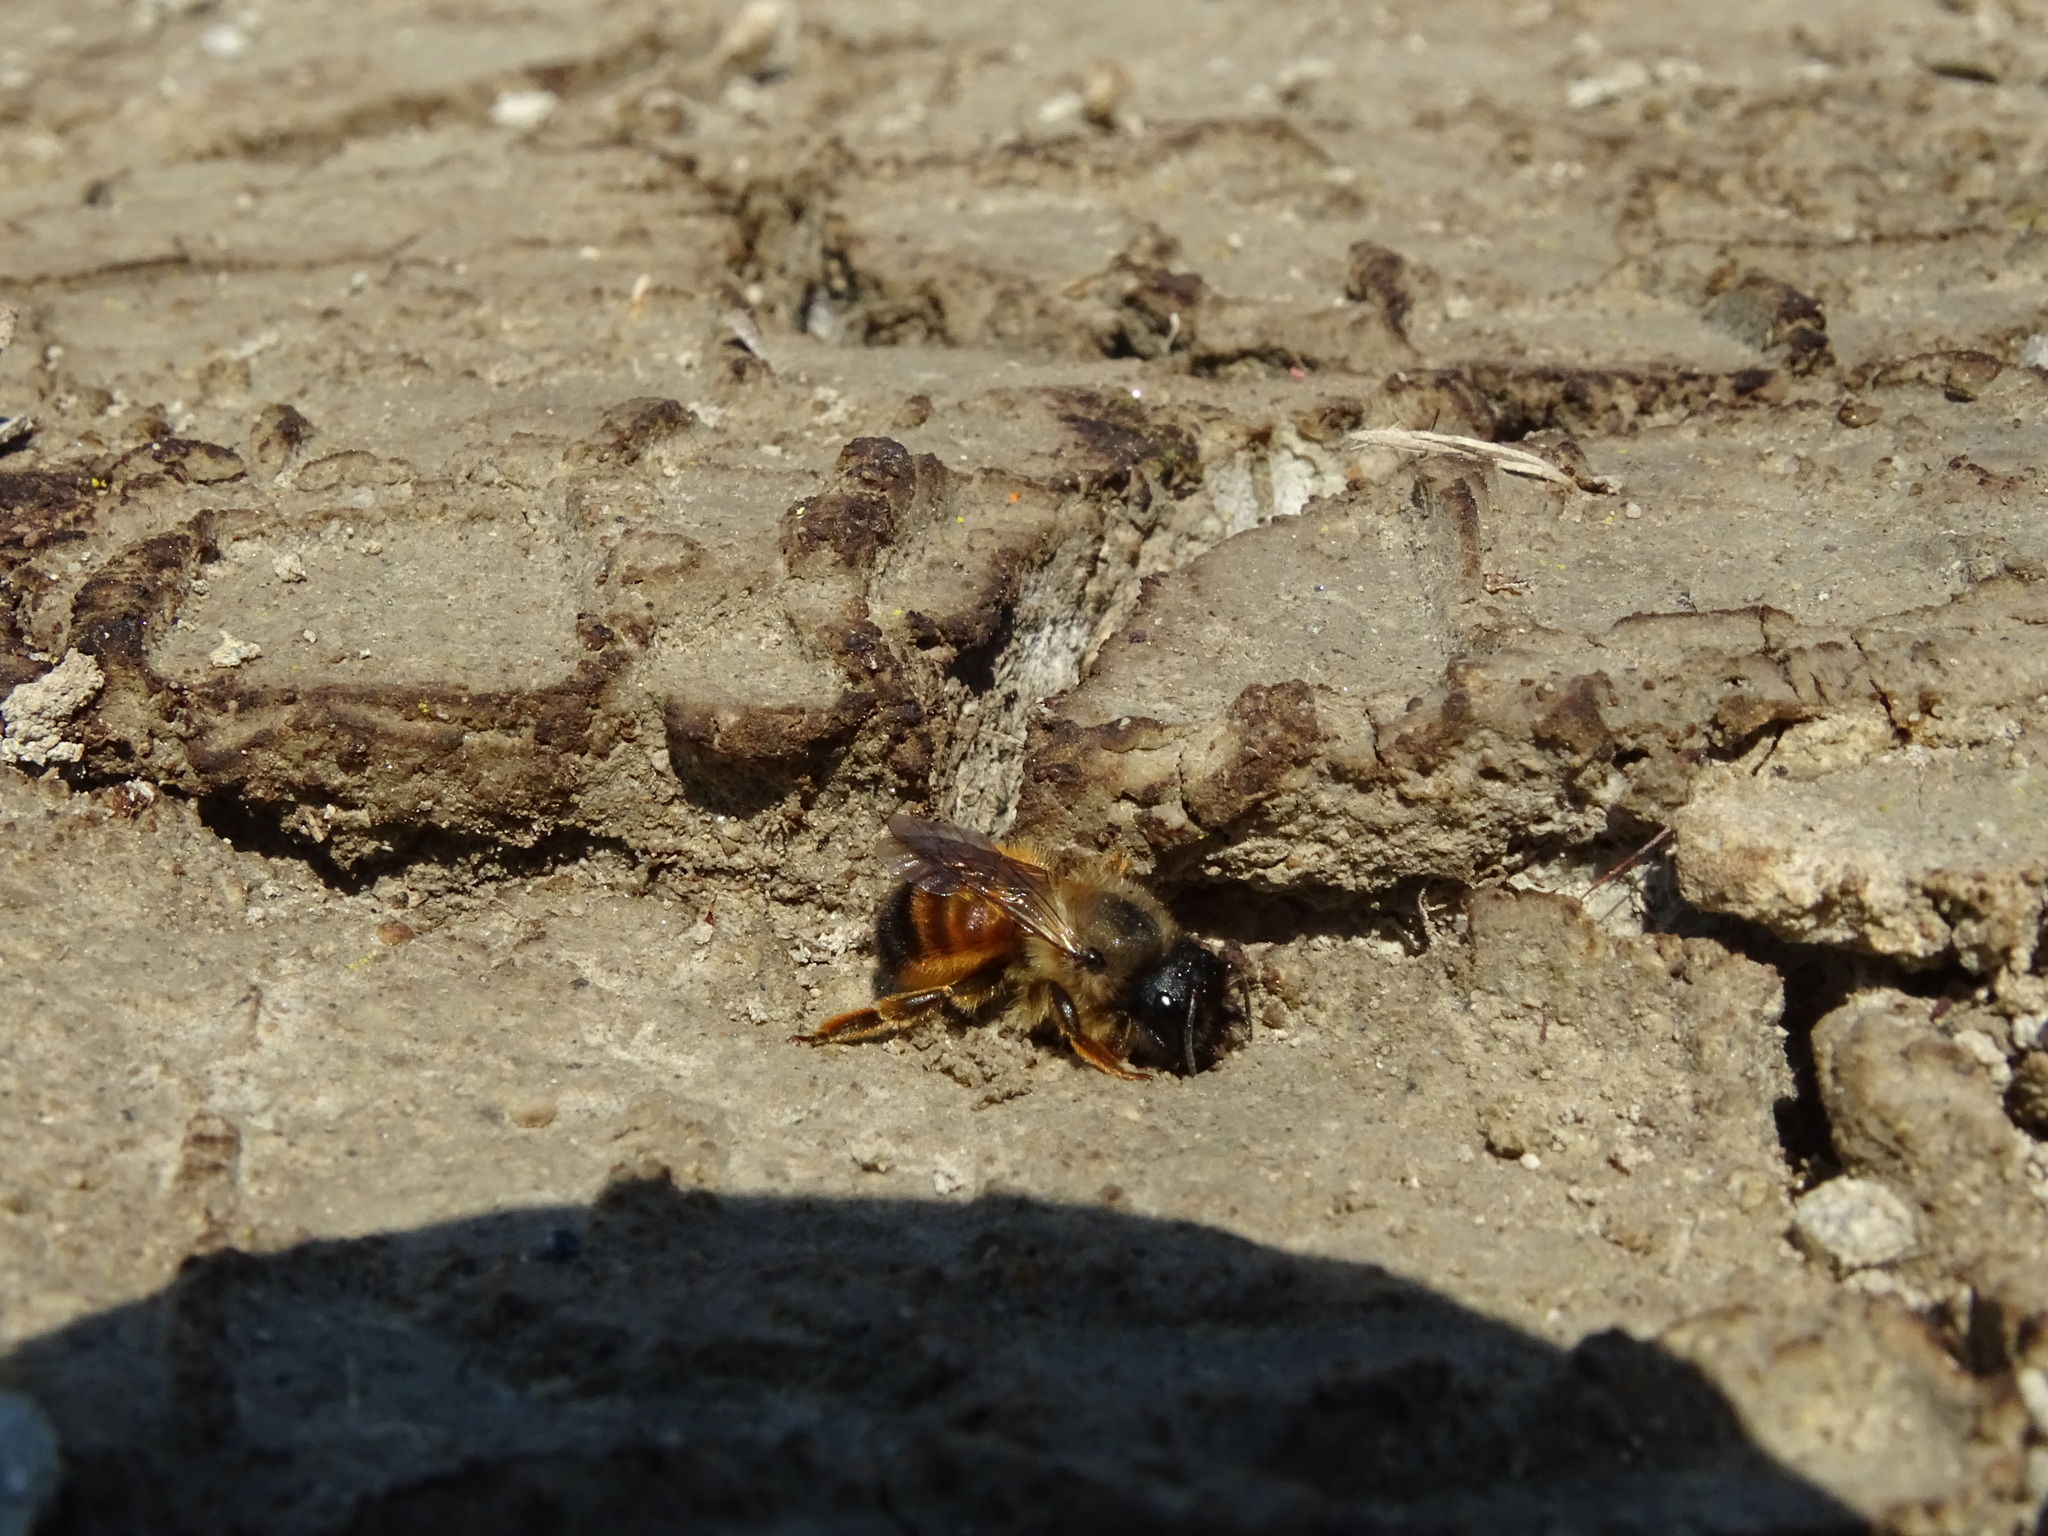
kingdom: Animalia
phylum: Arthropoda
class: Insecta
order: Hymenoptera
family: Megachilidae
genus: Osmia
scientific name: Osmia bicornis
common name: Red mason bee
